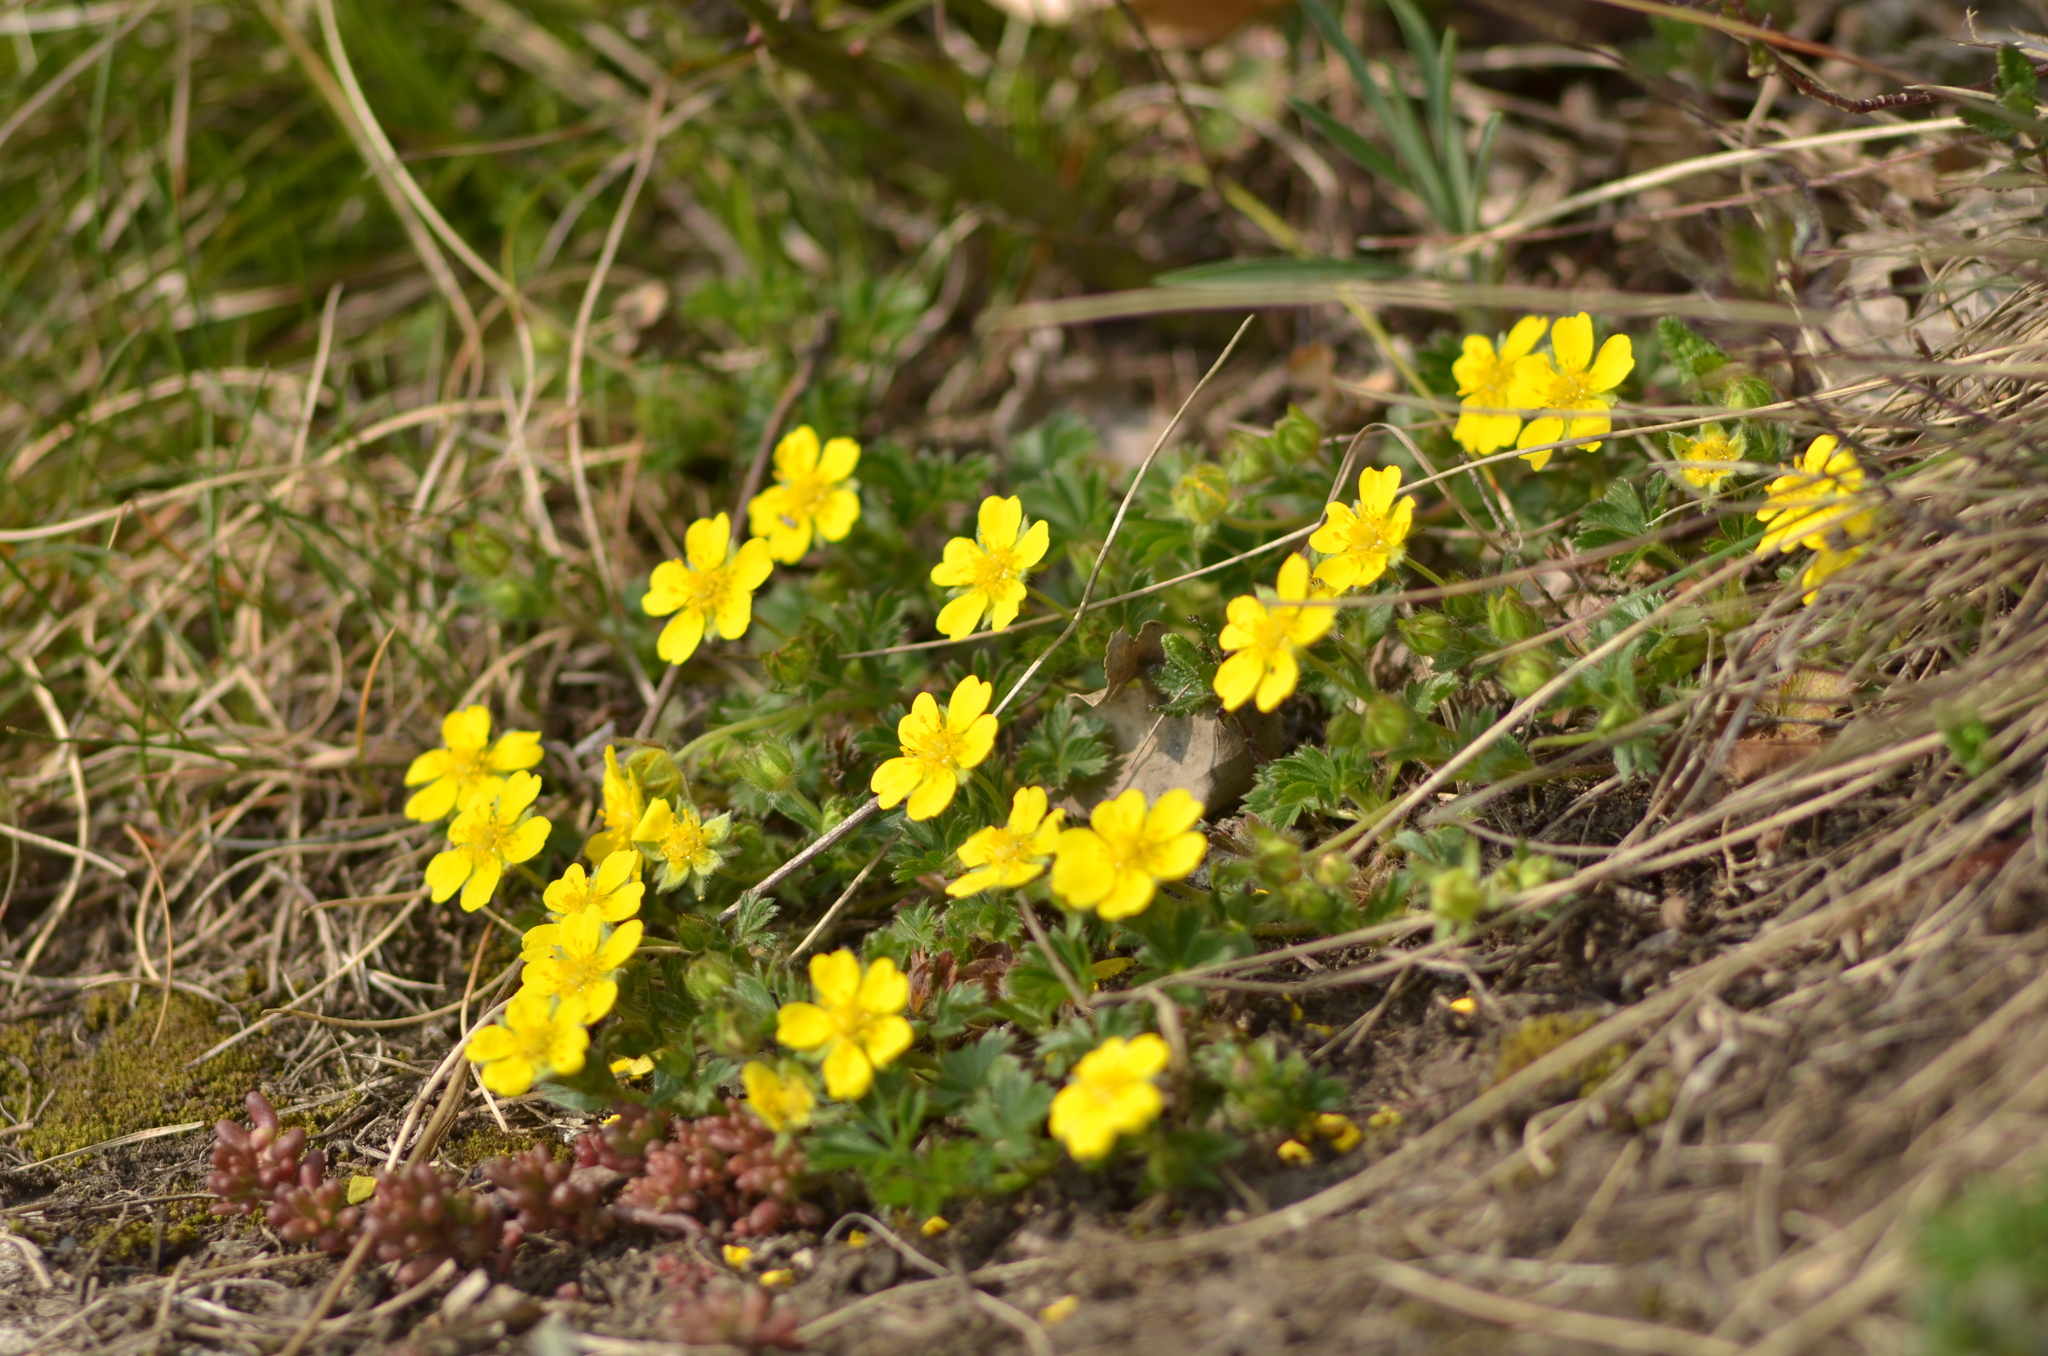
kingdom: Plantae
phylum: Tracheophyta
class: Magnoliopsida
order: Rosales
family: Rosaceae
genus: Potentilla
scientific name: Potentilla verna
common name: Spring cinquefoil
